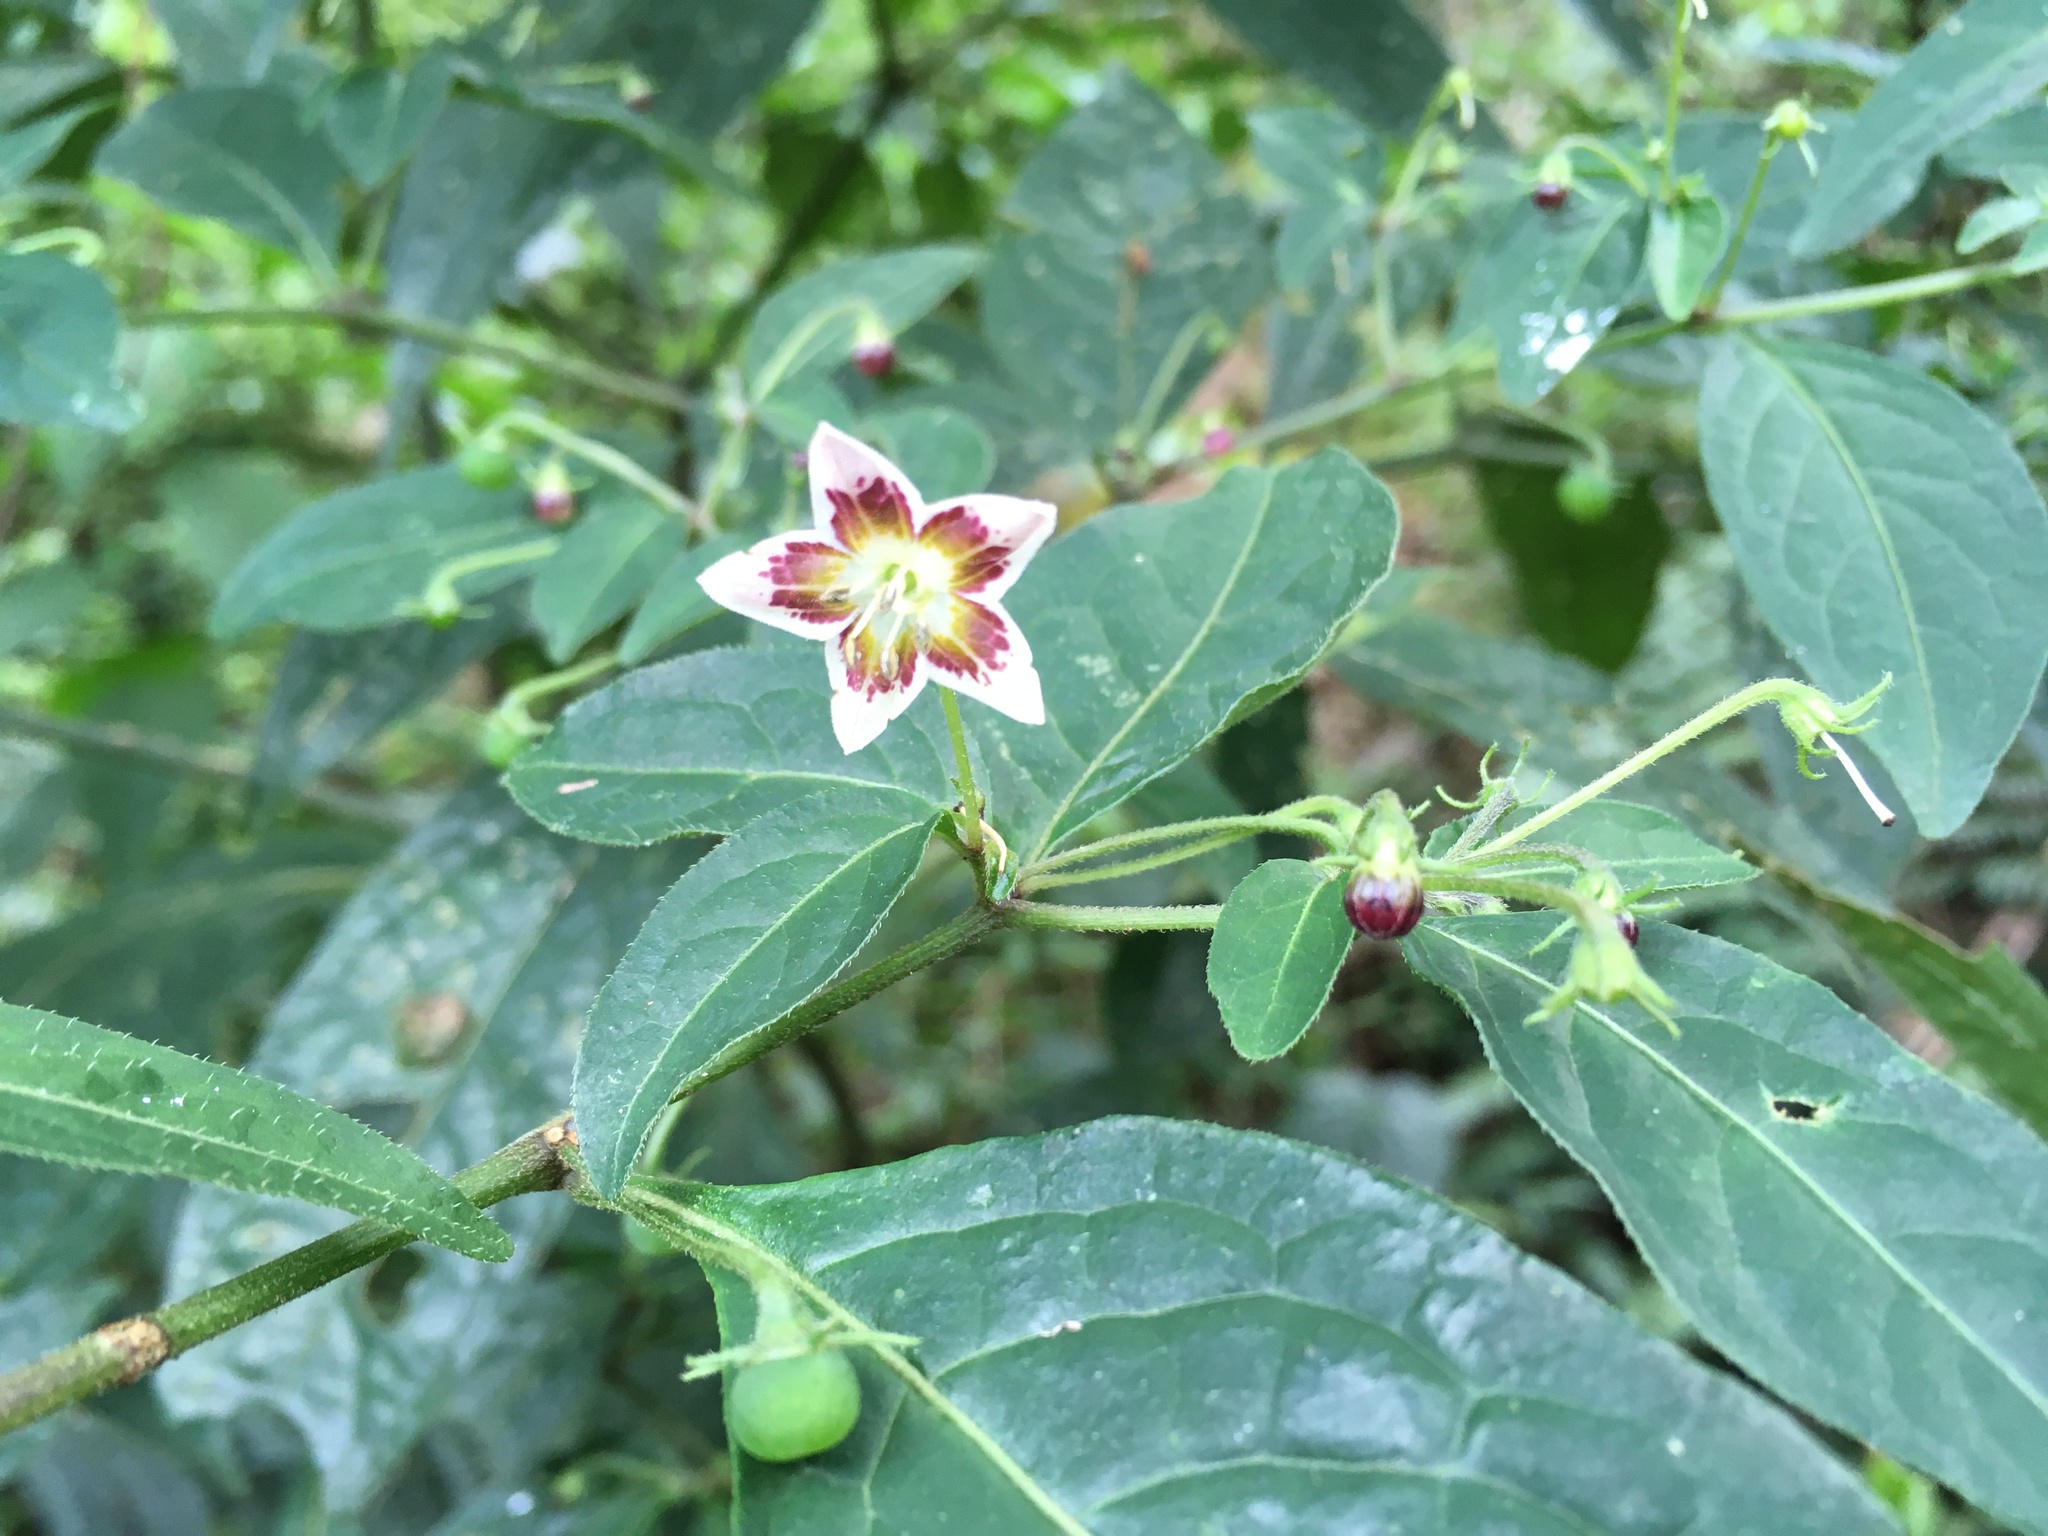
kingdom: Plantae
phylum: Tracheophyta
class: Magnoliopsida
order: Solanales
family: Solanaceae
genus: Capsicum
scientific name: Capsicum villosum
